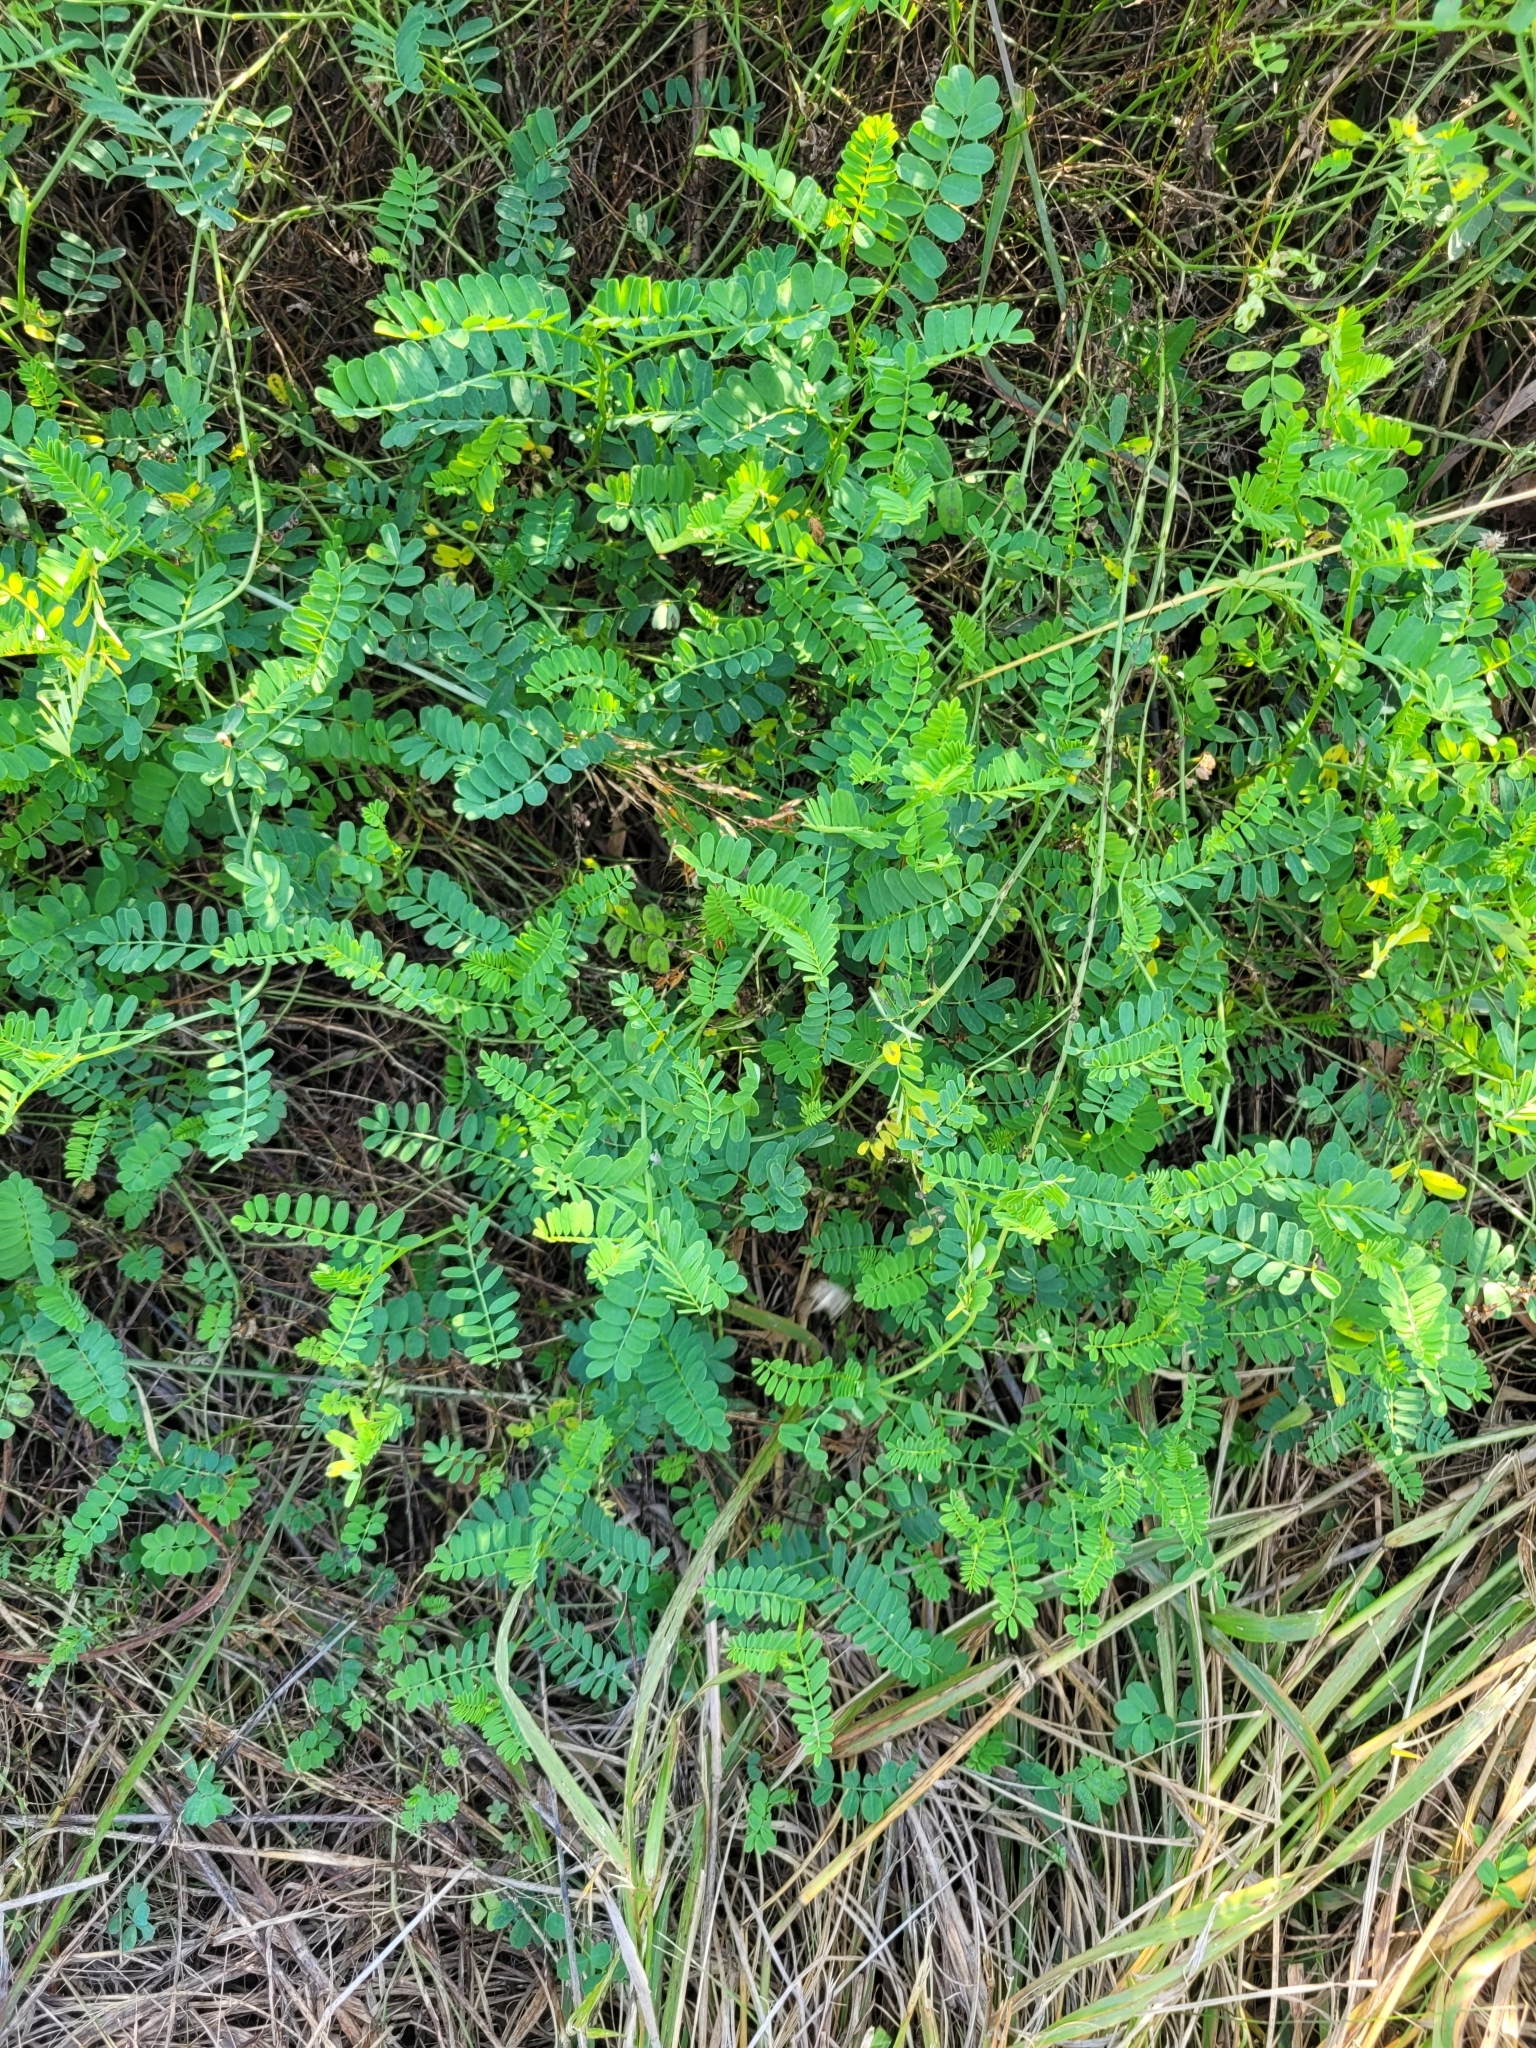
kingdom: Plantae
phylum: Tracheophyta
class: Magnoliopsida
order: Fabales
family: Fabaceae
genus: Coronilla
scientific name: Coronilla varia
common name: Crownvetch
